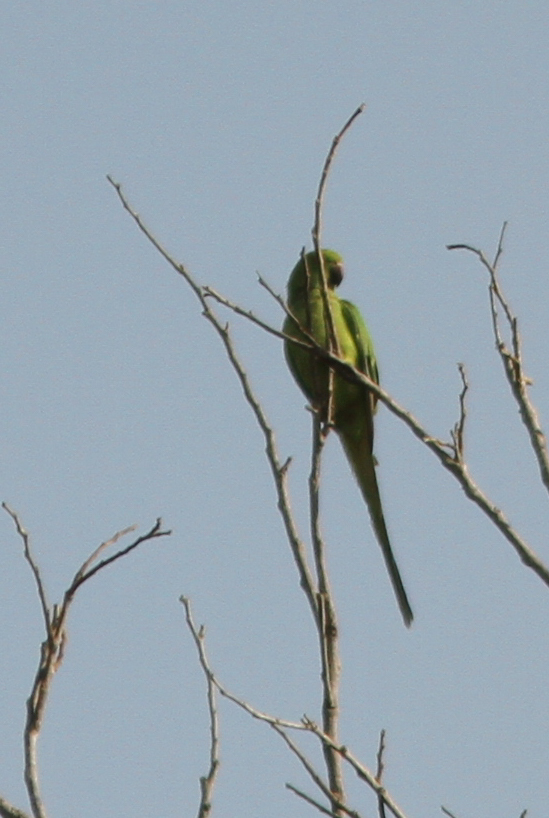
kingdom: Animalia
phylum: Chordata
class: Aves
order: Psittaciformes
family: Psittacidae
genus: Psittacula
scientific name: Psittacula krameri
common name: Rose-ringed parakeet
